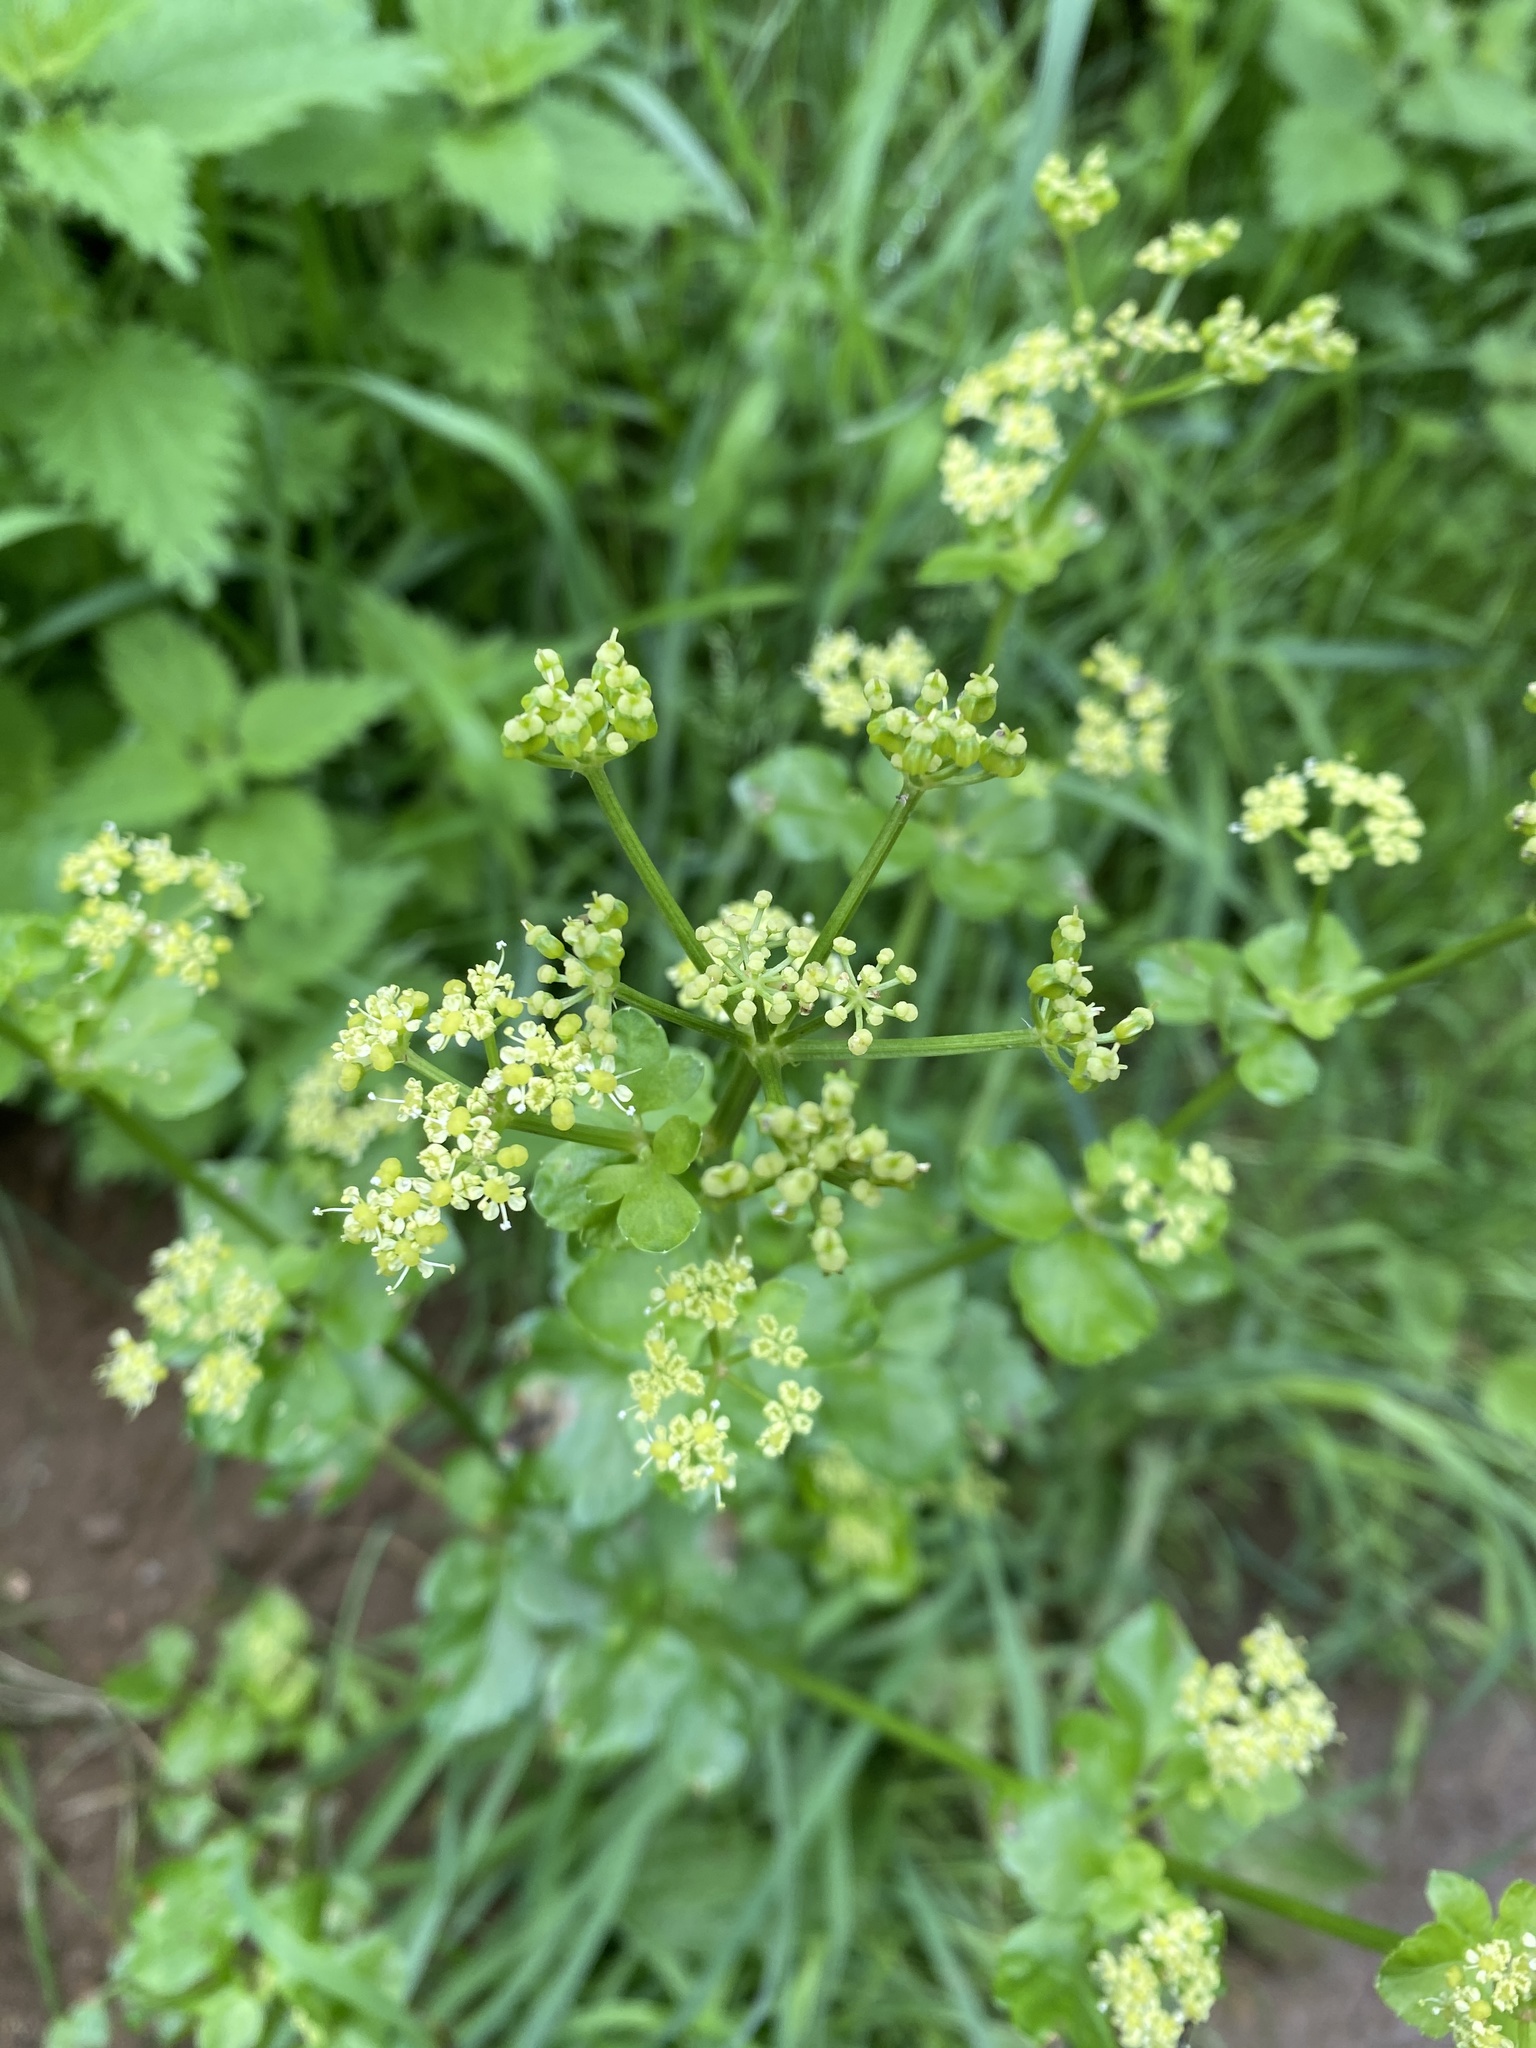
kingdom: Plantae
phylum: Tracheophyta
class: Magnoliopsida
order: Apiales
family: Apiaceae
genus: Smyrnium
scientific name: Smyrnium olusatrum
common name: Alexanders
